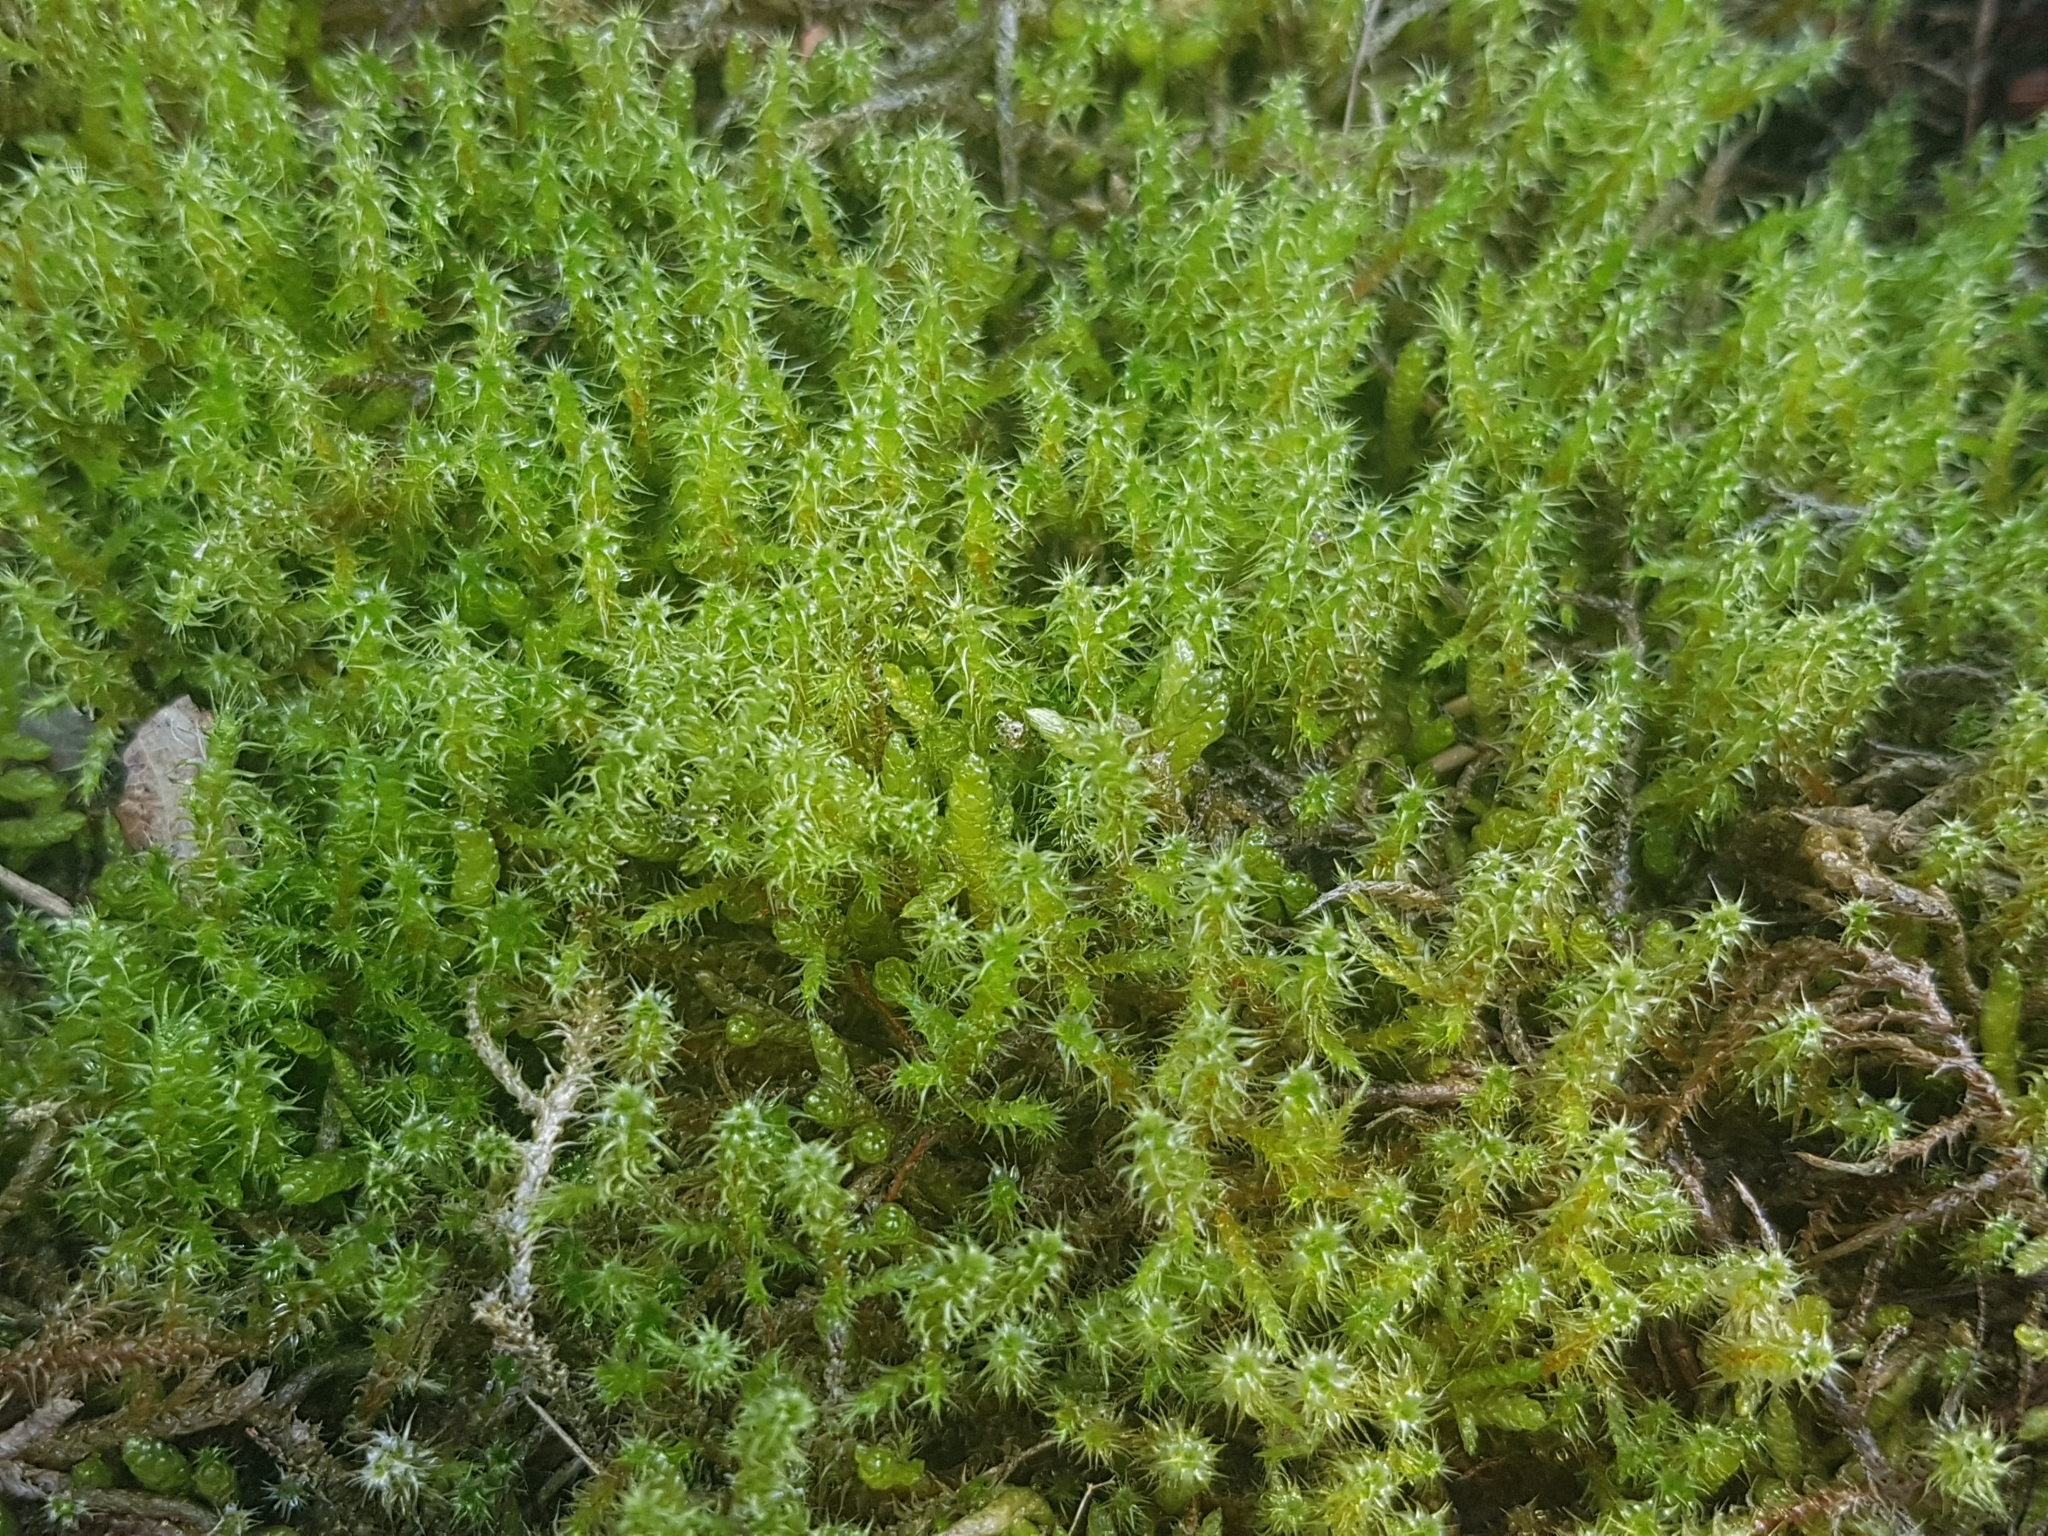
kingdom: Plantae
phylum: Bryophyta
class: Bryopsida
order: Hypnales
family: Hylocomiaceae
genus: Rhytidiadelphus
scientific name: Rhytidiadelphus squarrosus
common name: Springy turf-moss
